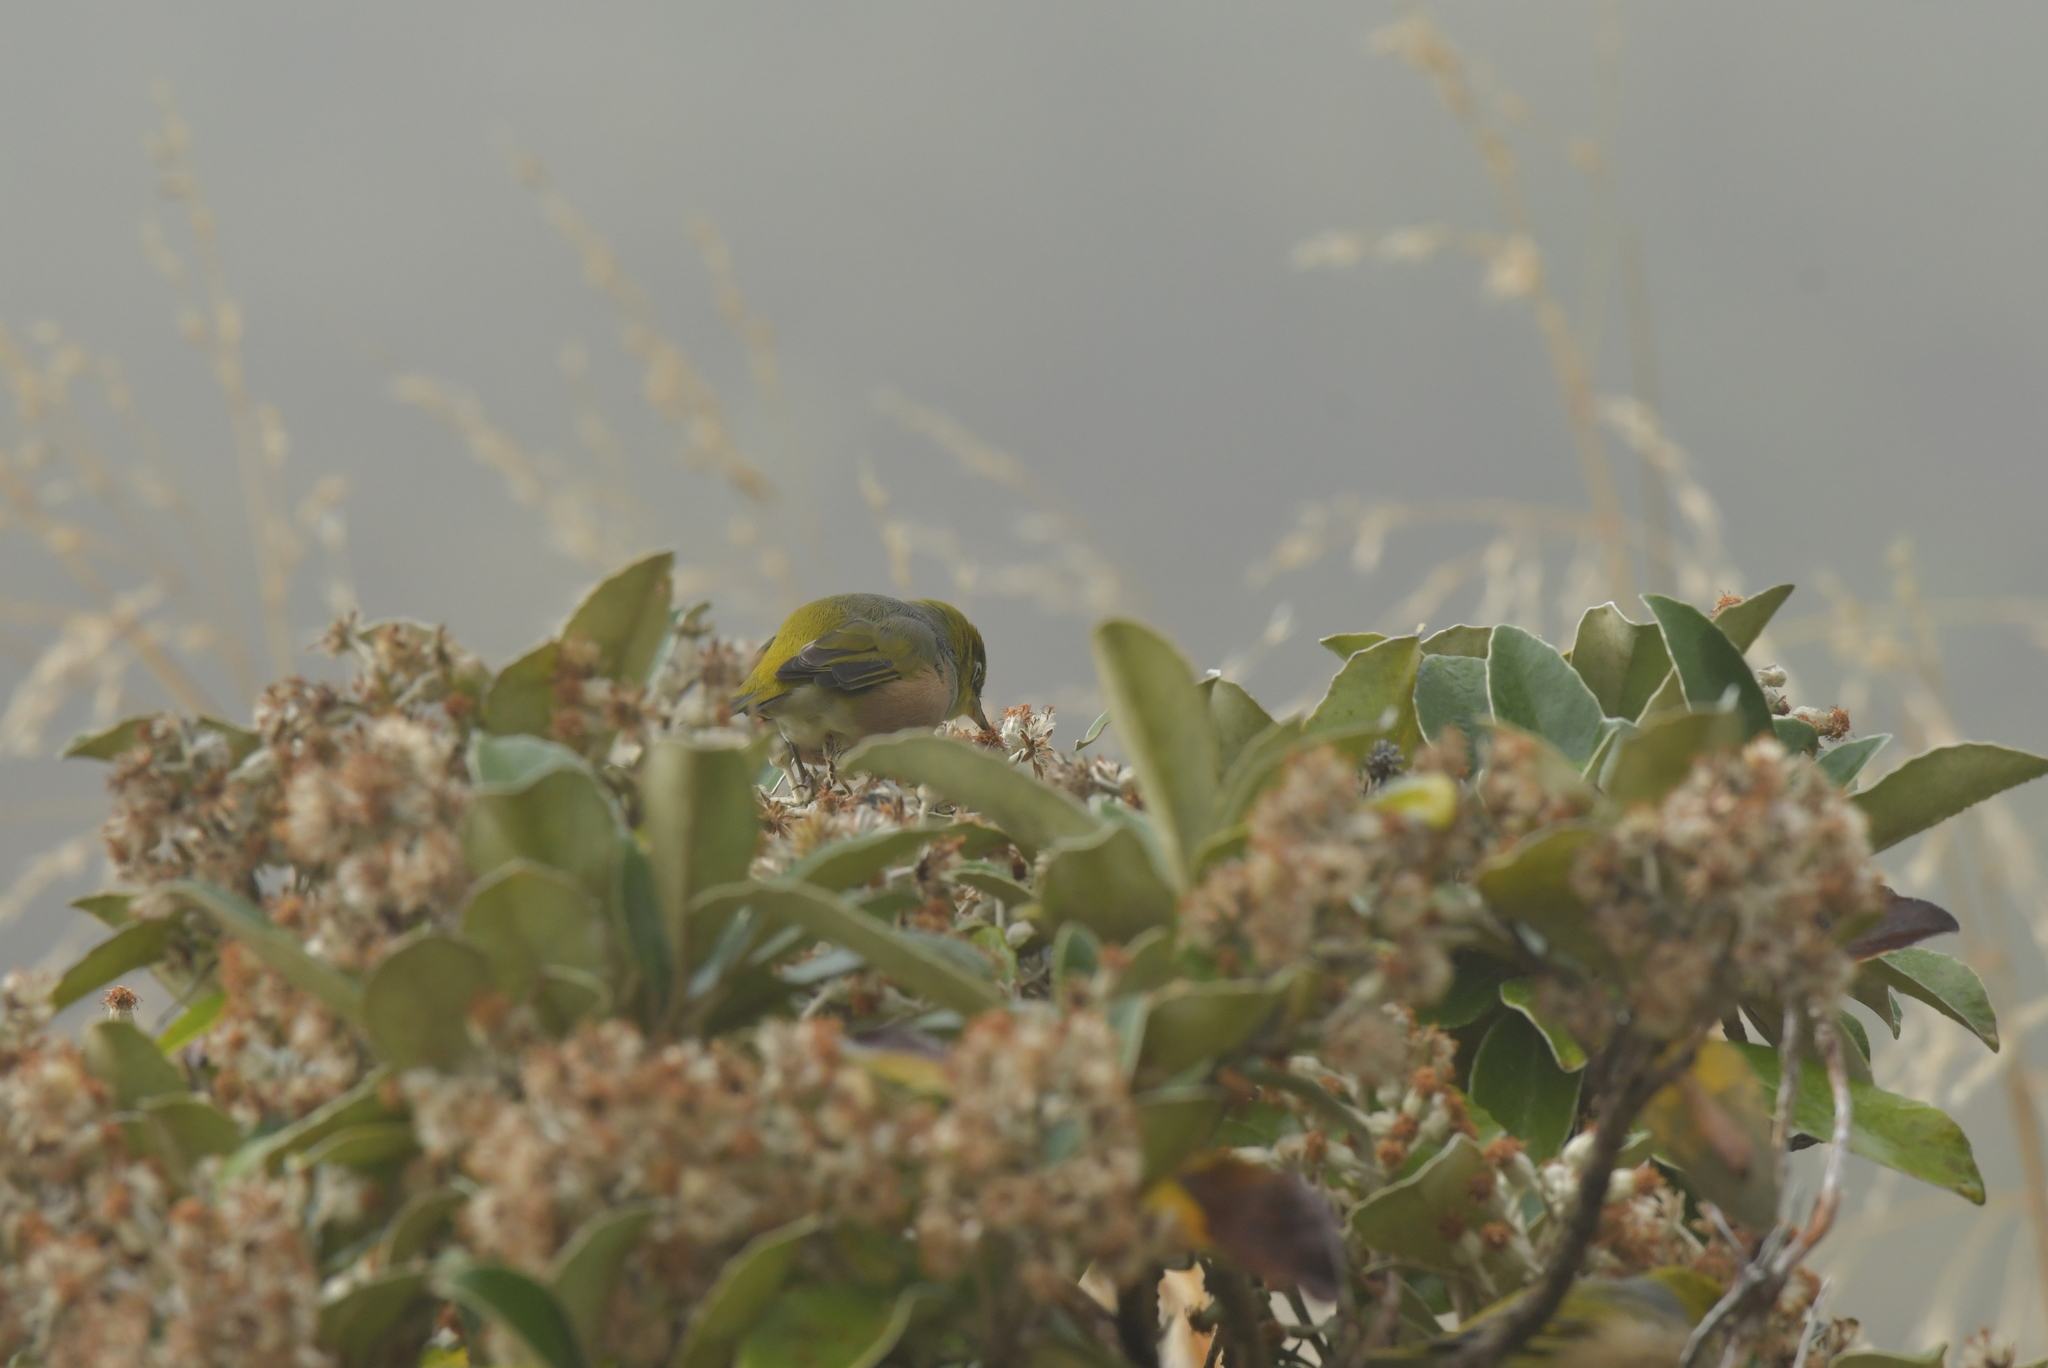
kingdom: Animalia
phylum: Chordata
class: Aves
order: Passeriformes
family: Zosteropidae
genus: Zosterops
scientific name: Zosterops lateralis
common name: Silvereye
